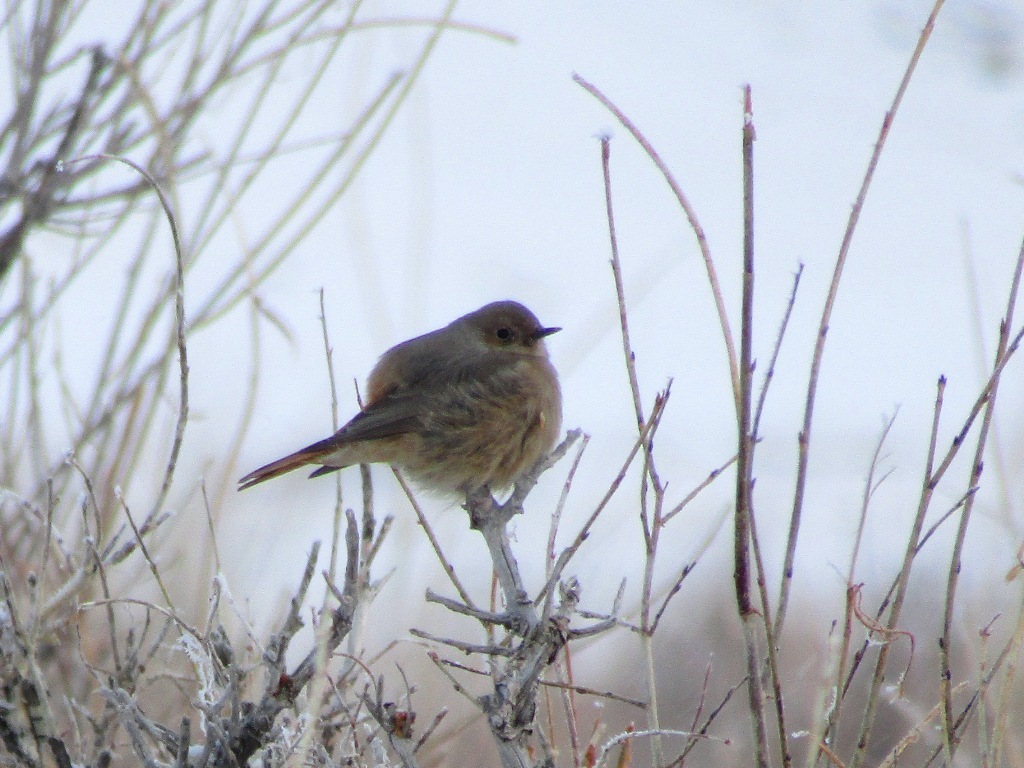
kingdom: Animalia
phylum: Chordata
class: Aves
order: Passeriformes
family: Muscicapidae
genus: Phoenicurus
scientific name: Phoenicurus erythrogastrus
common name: Güldenstädt's redstart
